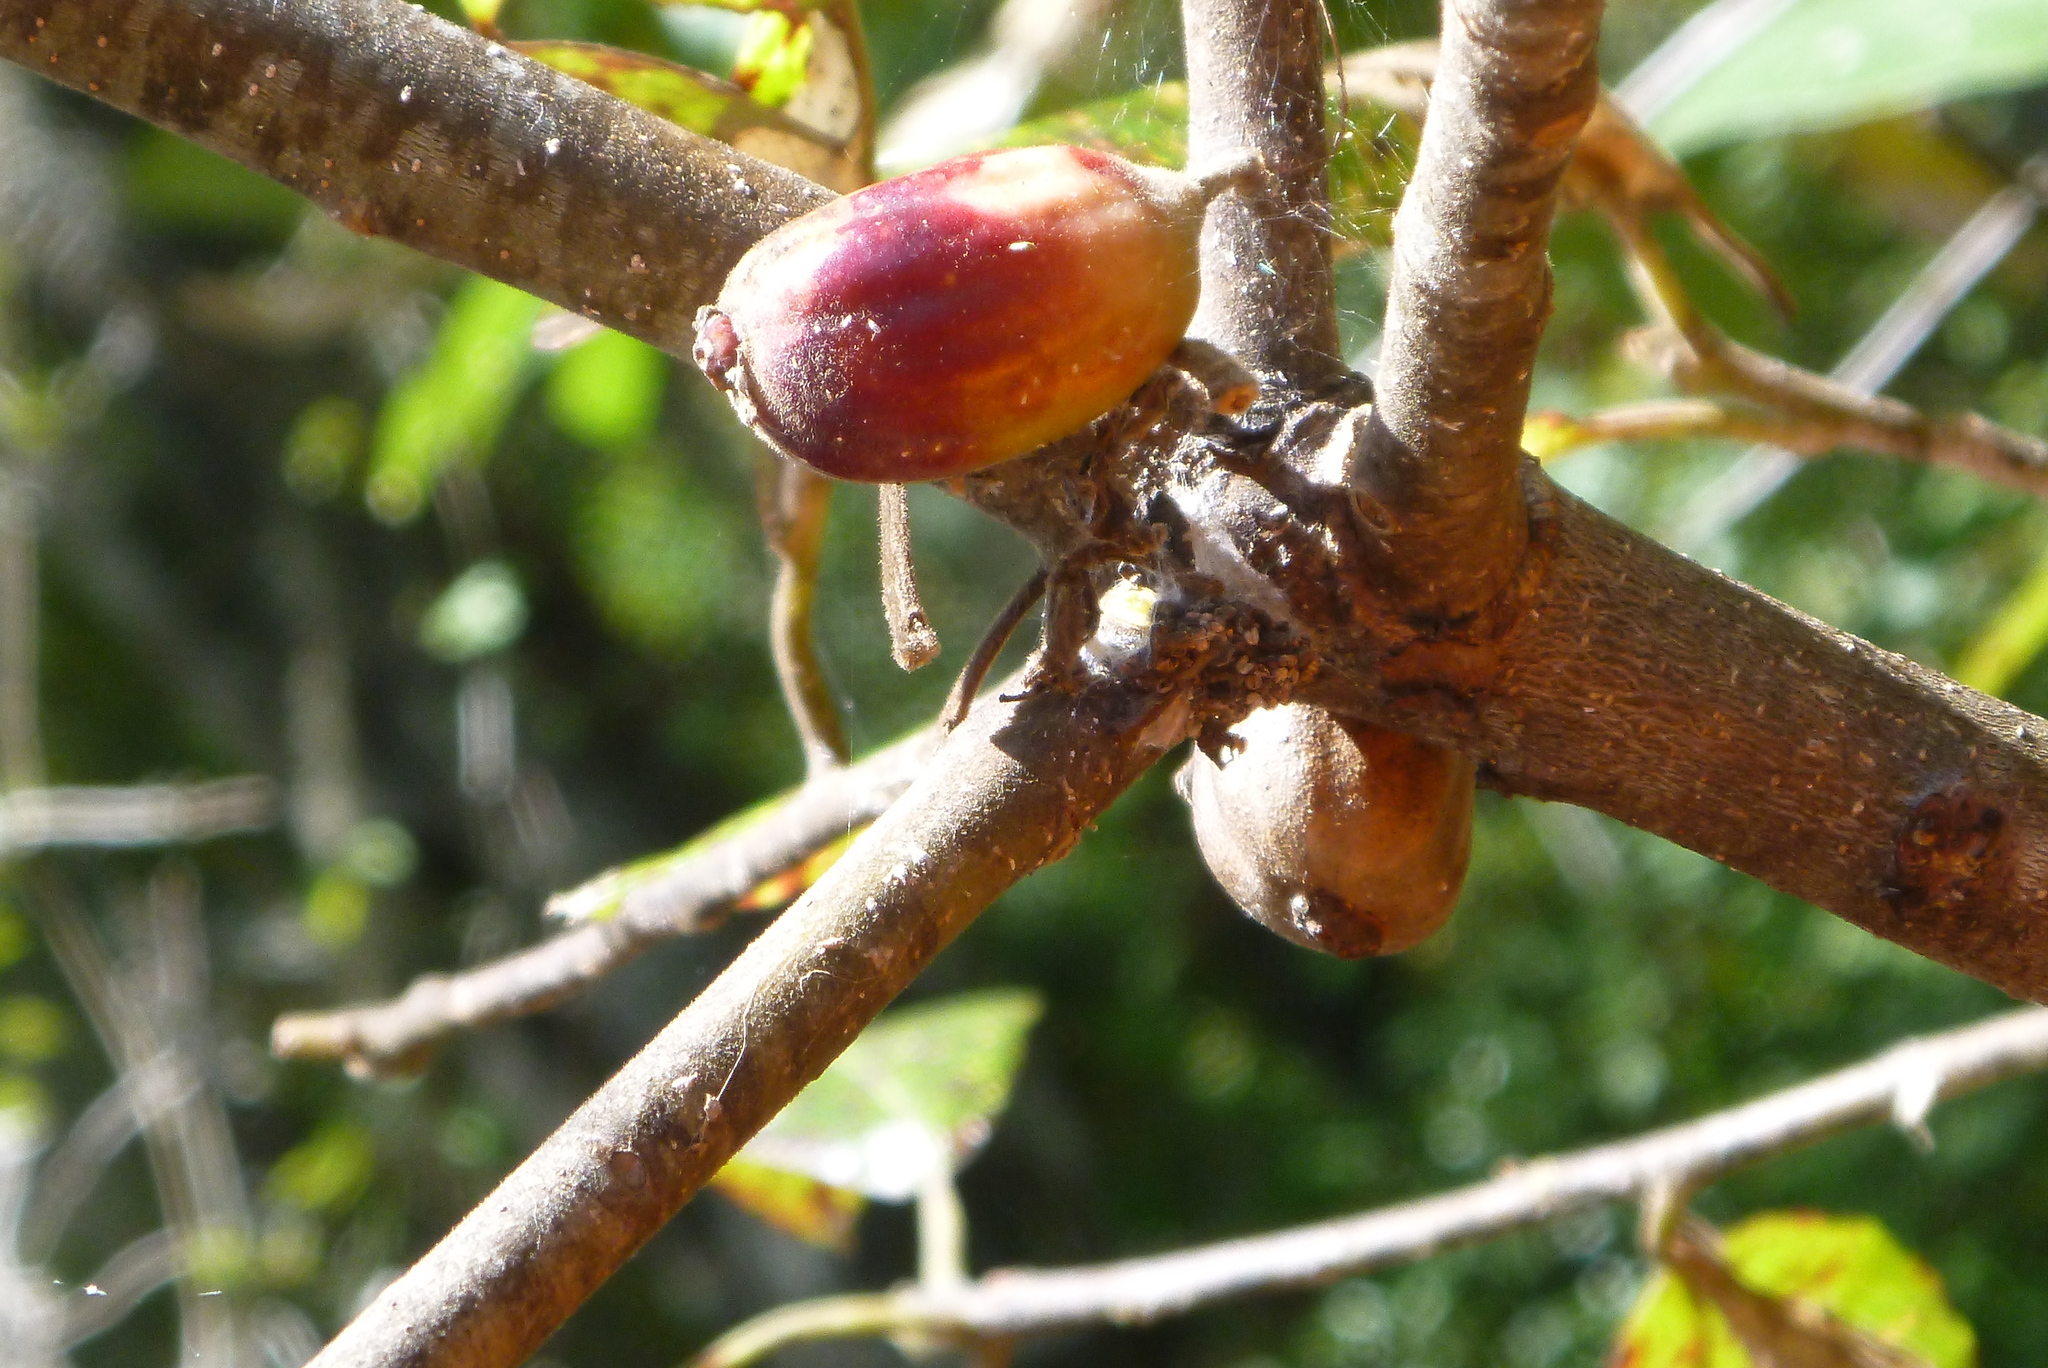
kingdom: Plantae
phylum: Tracheophyta
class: Magnoliopsida
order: Cornales
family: Nyssaceae
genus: Nyssa
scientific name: Nyssa ogeche
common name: Ogeechee tupelo
